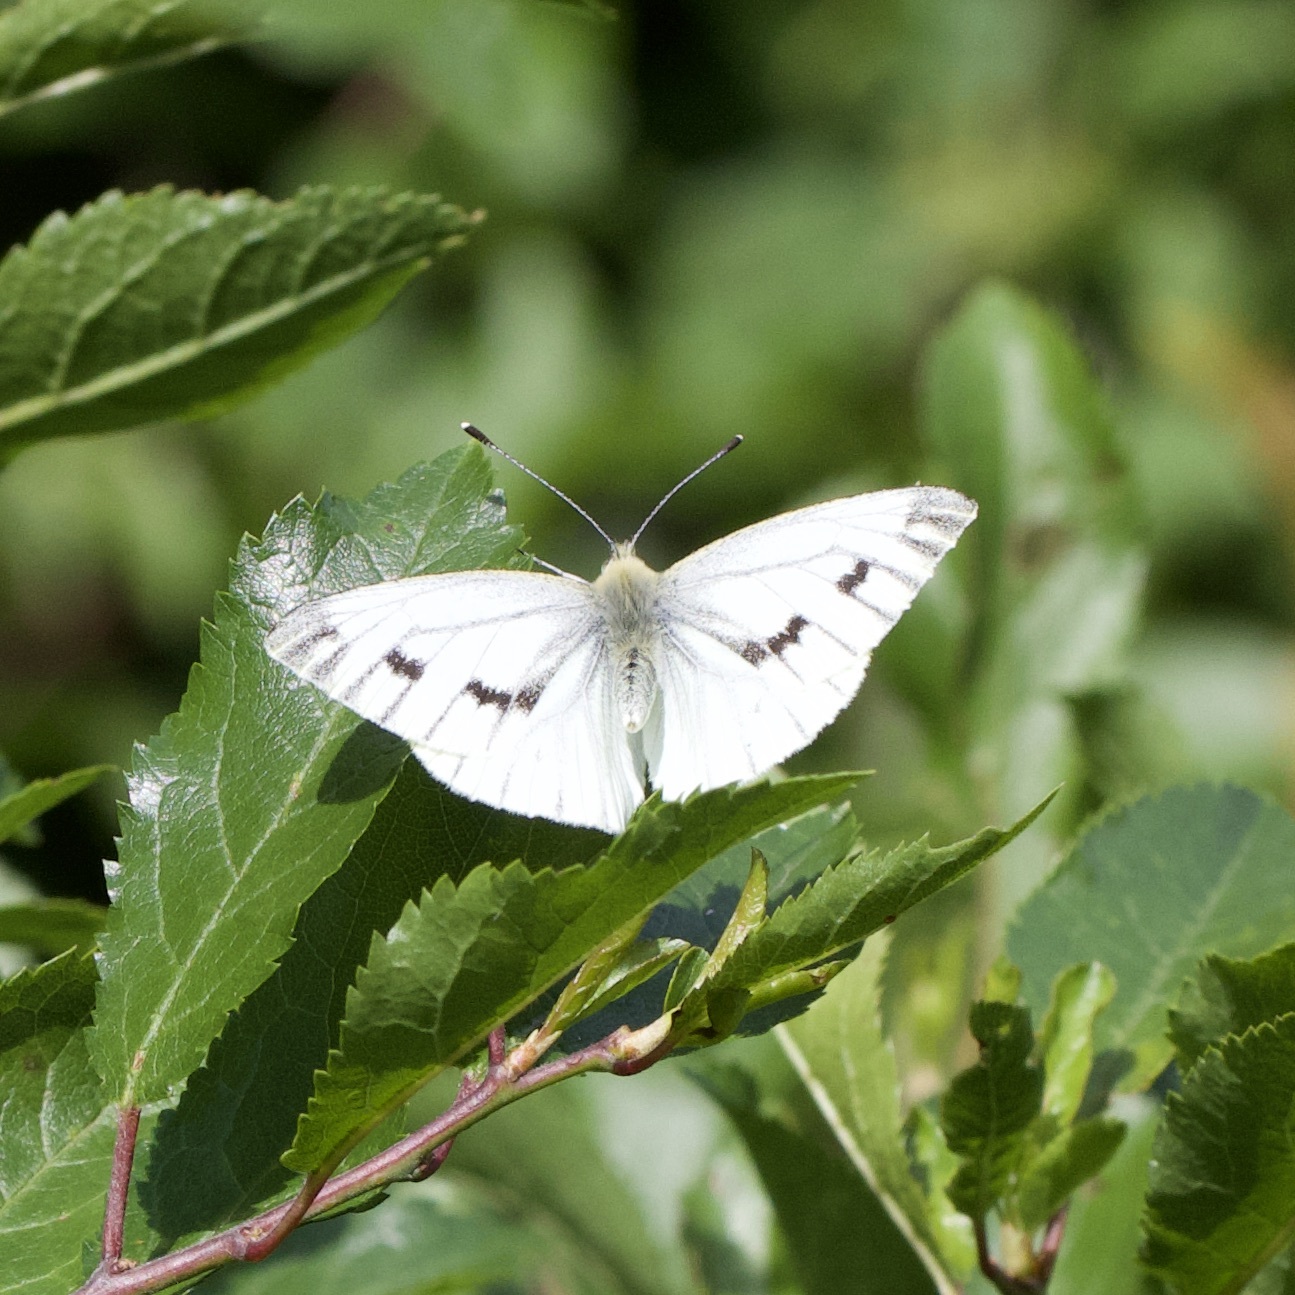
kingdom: Animalia
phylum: Arthropoda
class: Insecta
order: Lepidoptera
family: Pieridae
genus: Pieris
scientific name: Pieris napi
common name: Green-veined white
